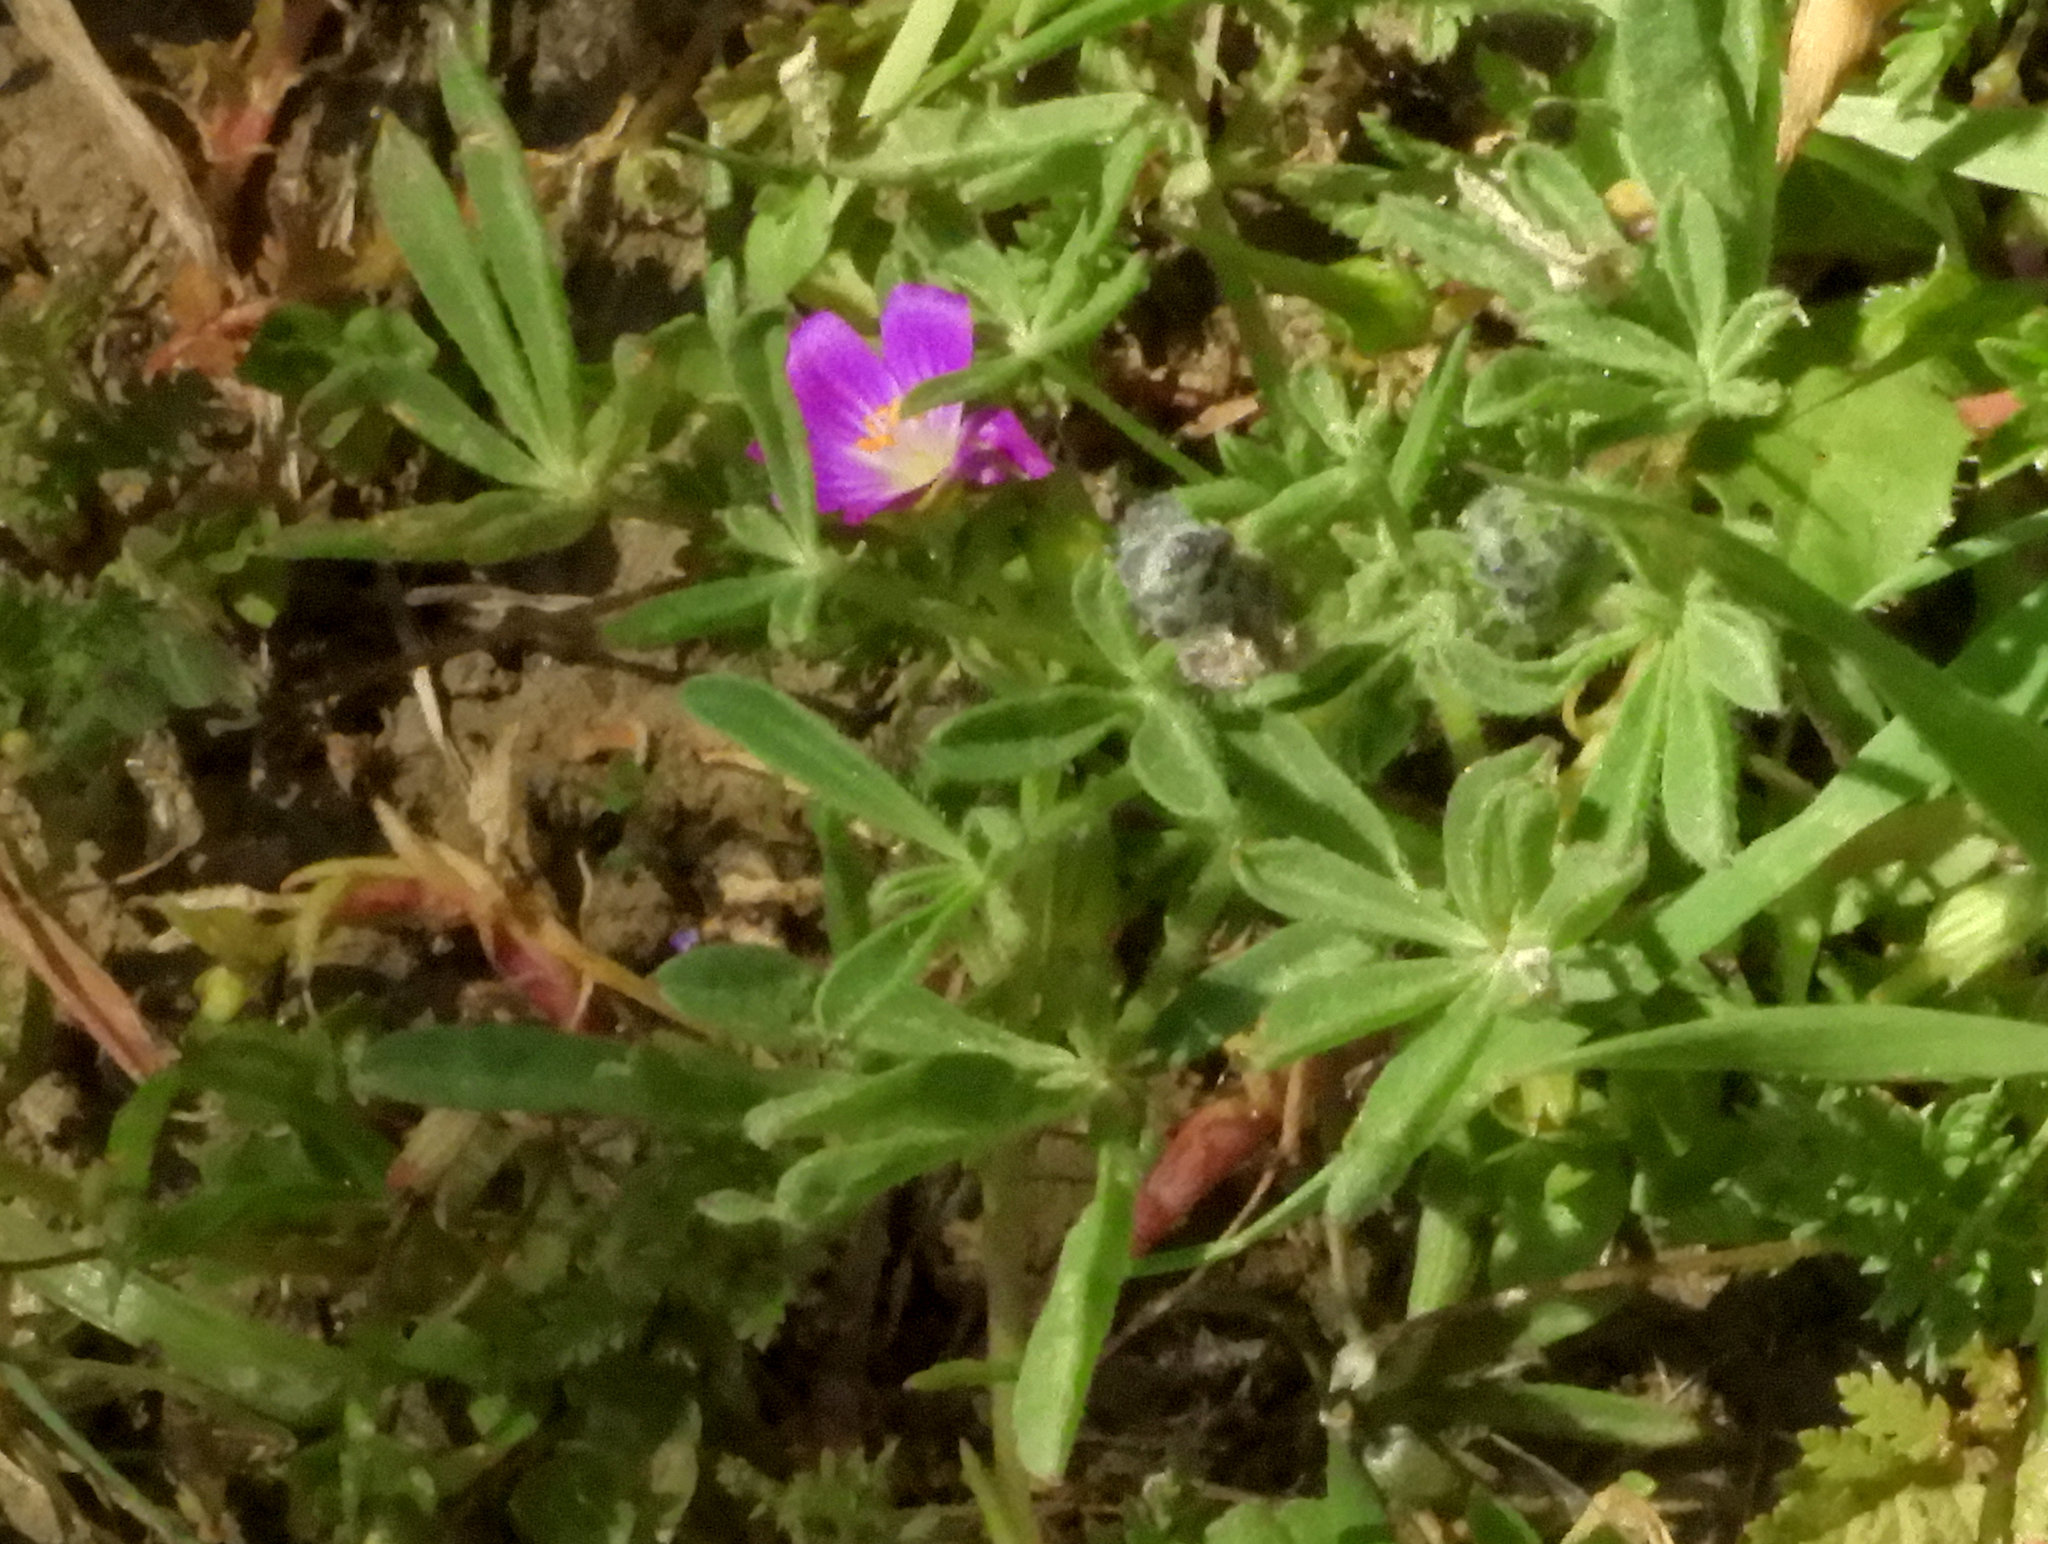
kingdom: Plantae
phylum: Tracheophyta
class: Magnoliopsida
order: Caryophyllales
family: Montiaceae
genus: Calandrinia
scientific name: Calandrinia menziesii
